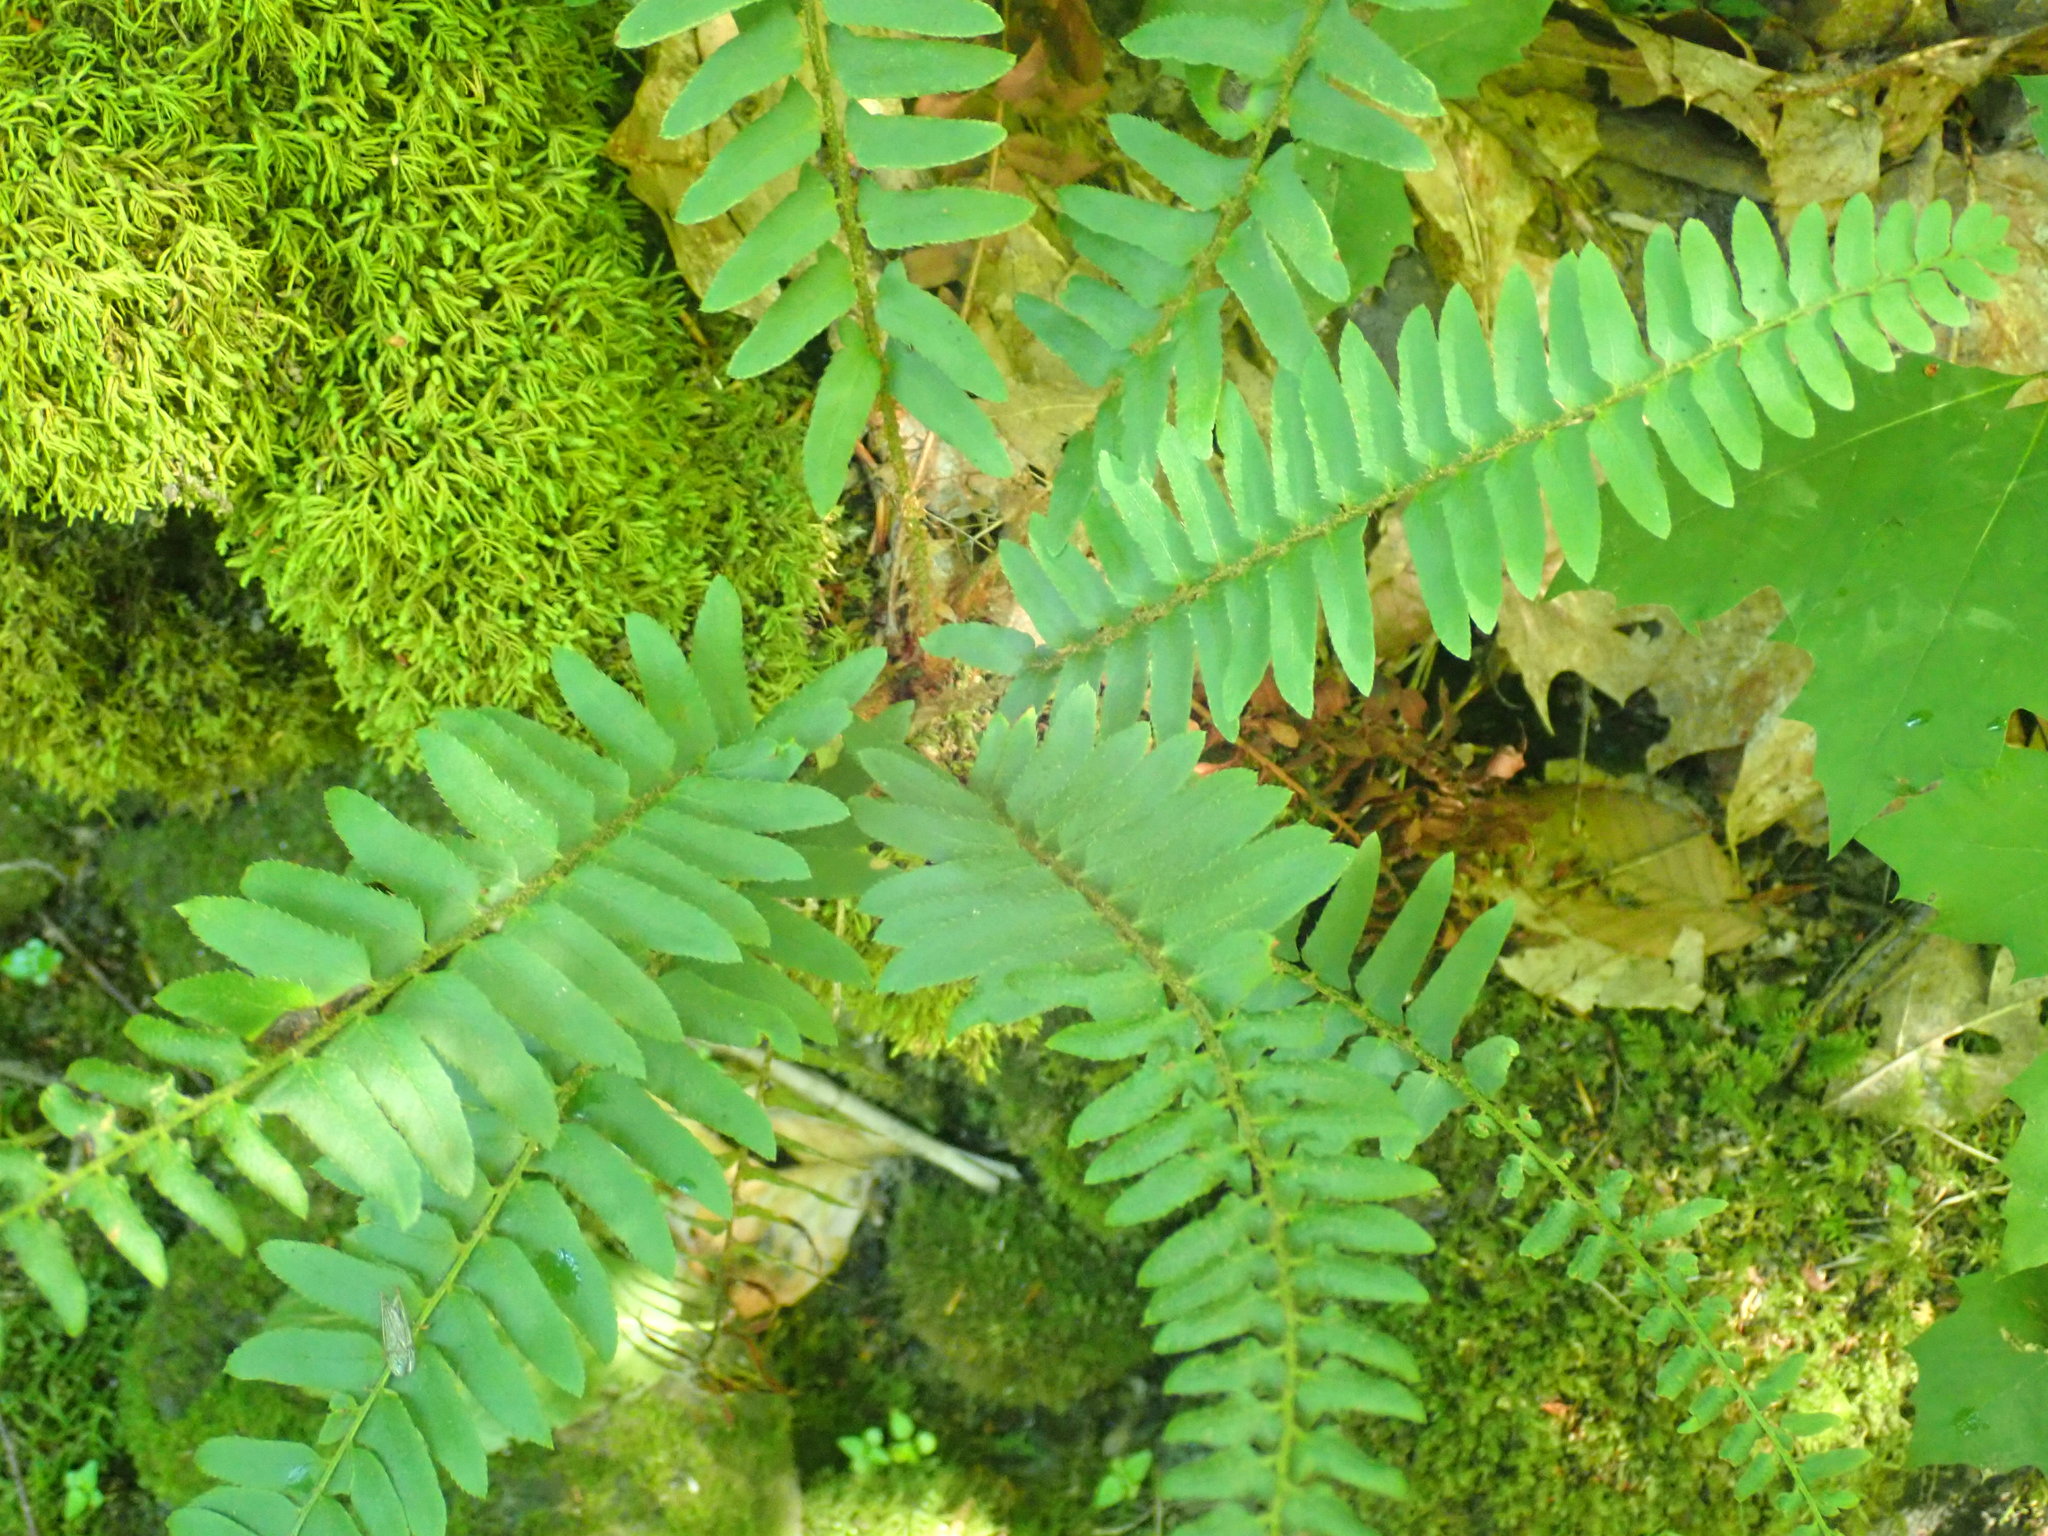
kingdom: Plantae
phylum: Tracheophyta
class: Polypodiopsida
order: Polypodiales
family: Dryopteridaceae
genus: Polystichum
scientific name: Polystichum acrostichoides
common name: Christmas fern
